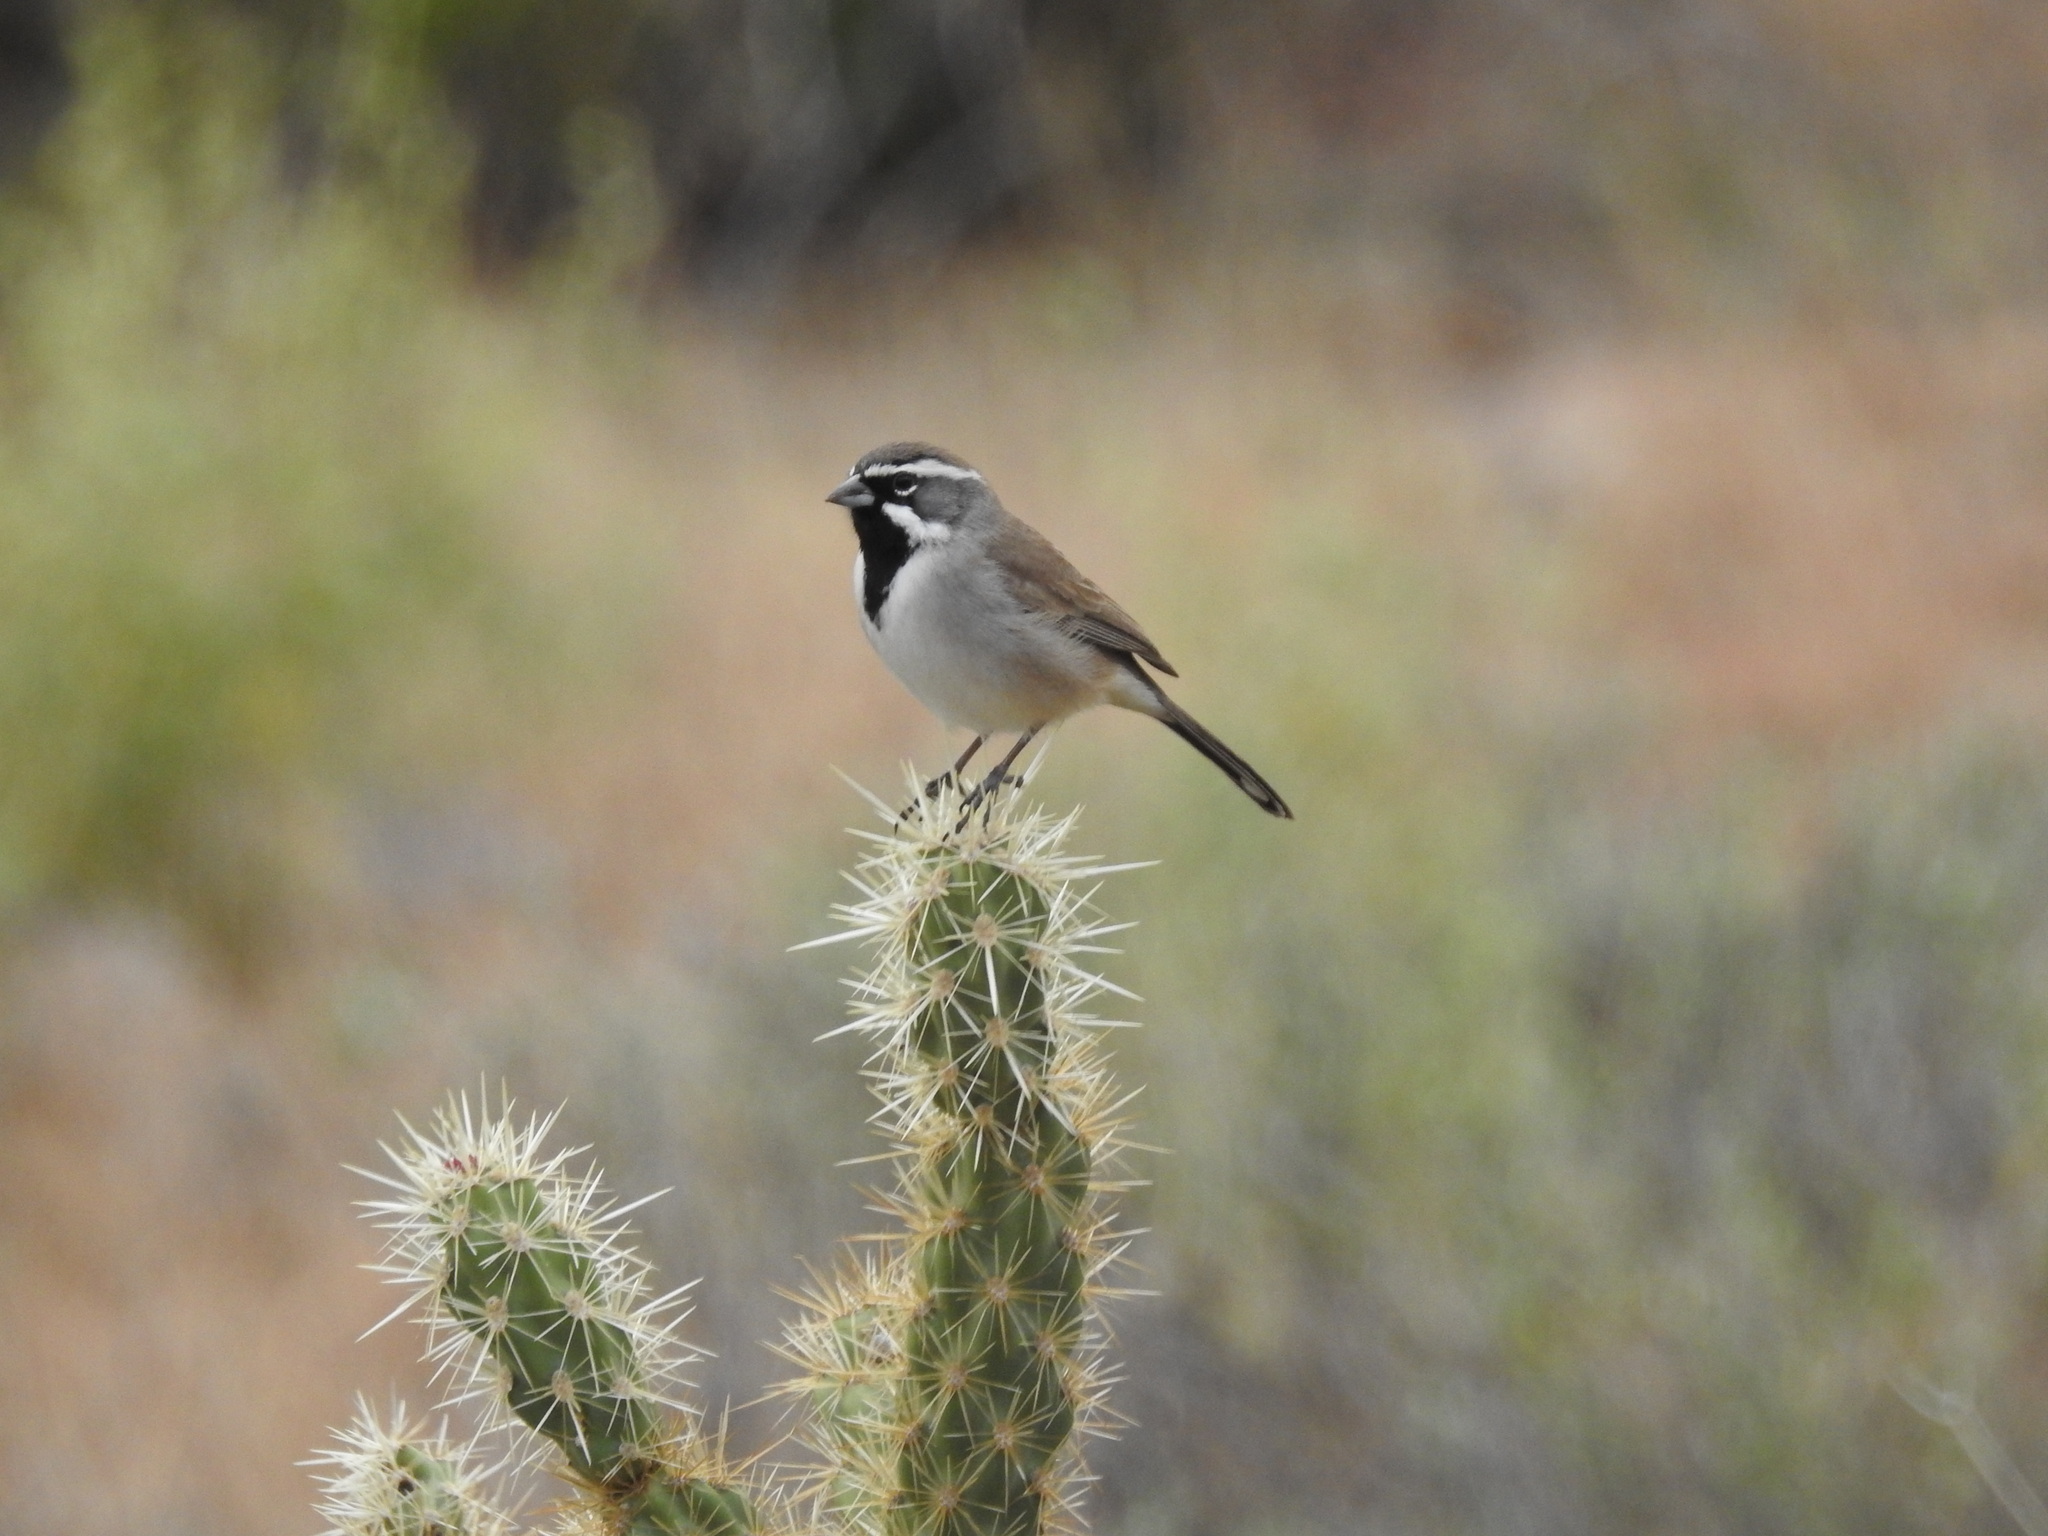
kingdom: Animalia
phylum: Chordata
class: Aves
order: Passeriformes
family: Passerellidae
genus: Amphispiza
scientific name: Amphispiza bilineata
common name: Black-throated sparrow
